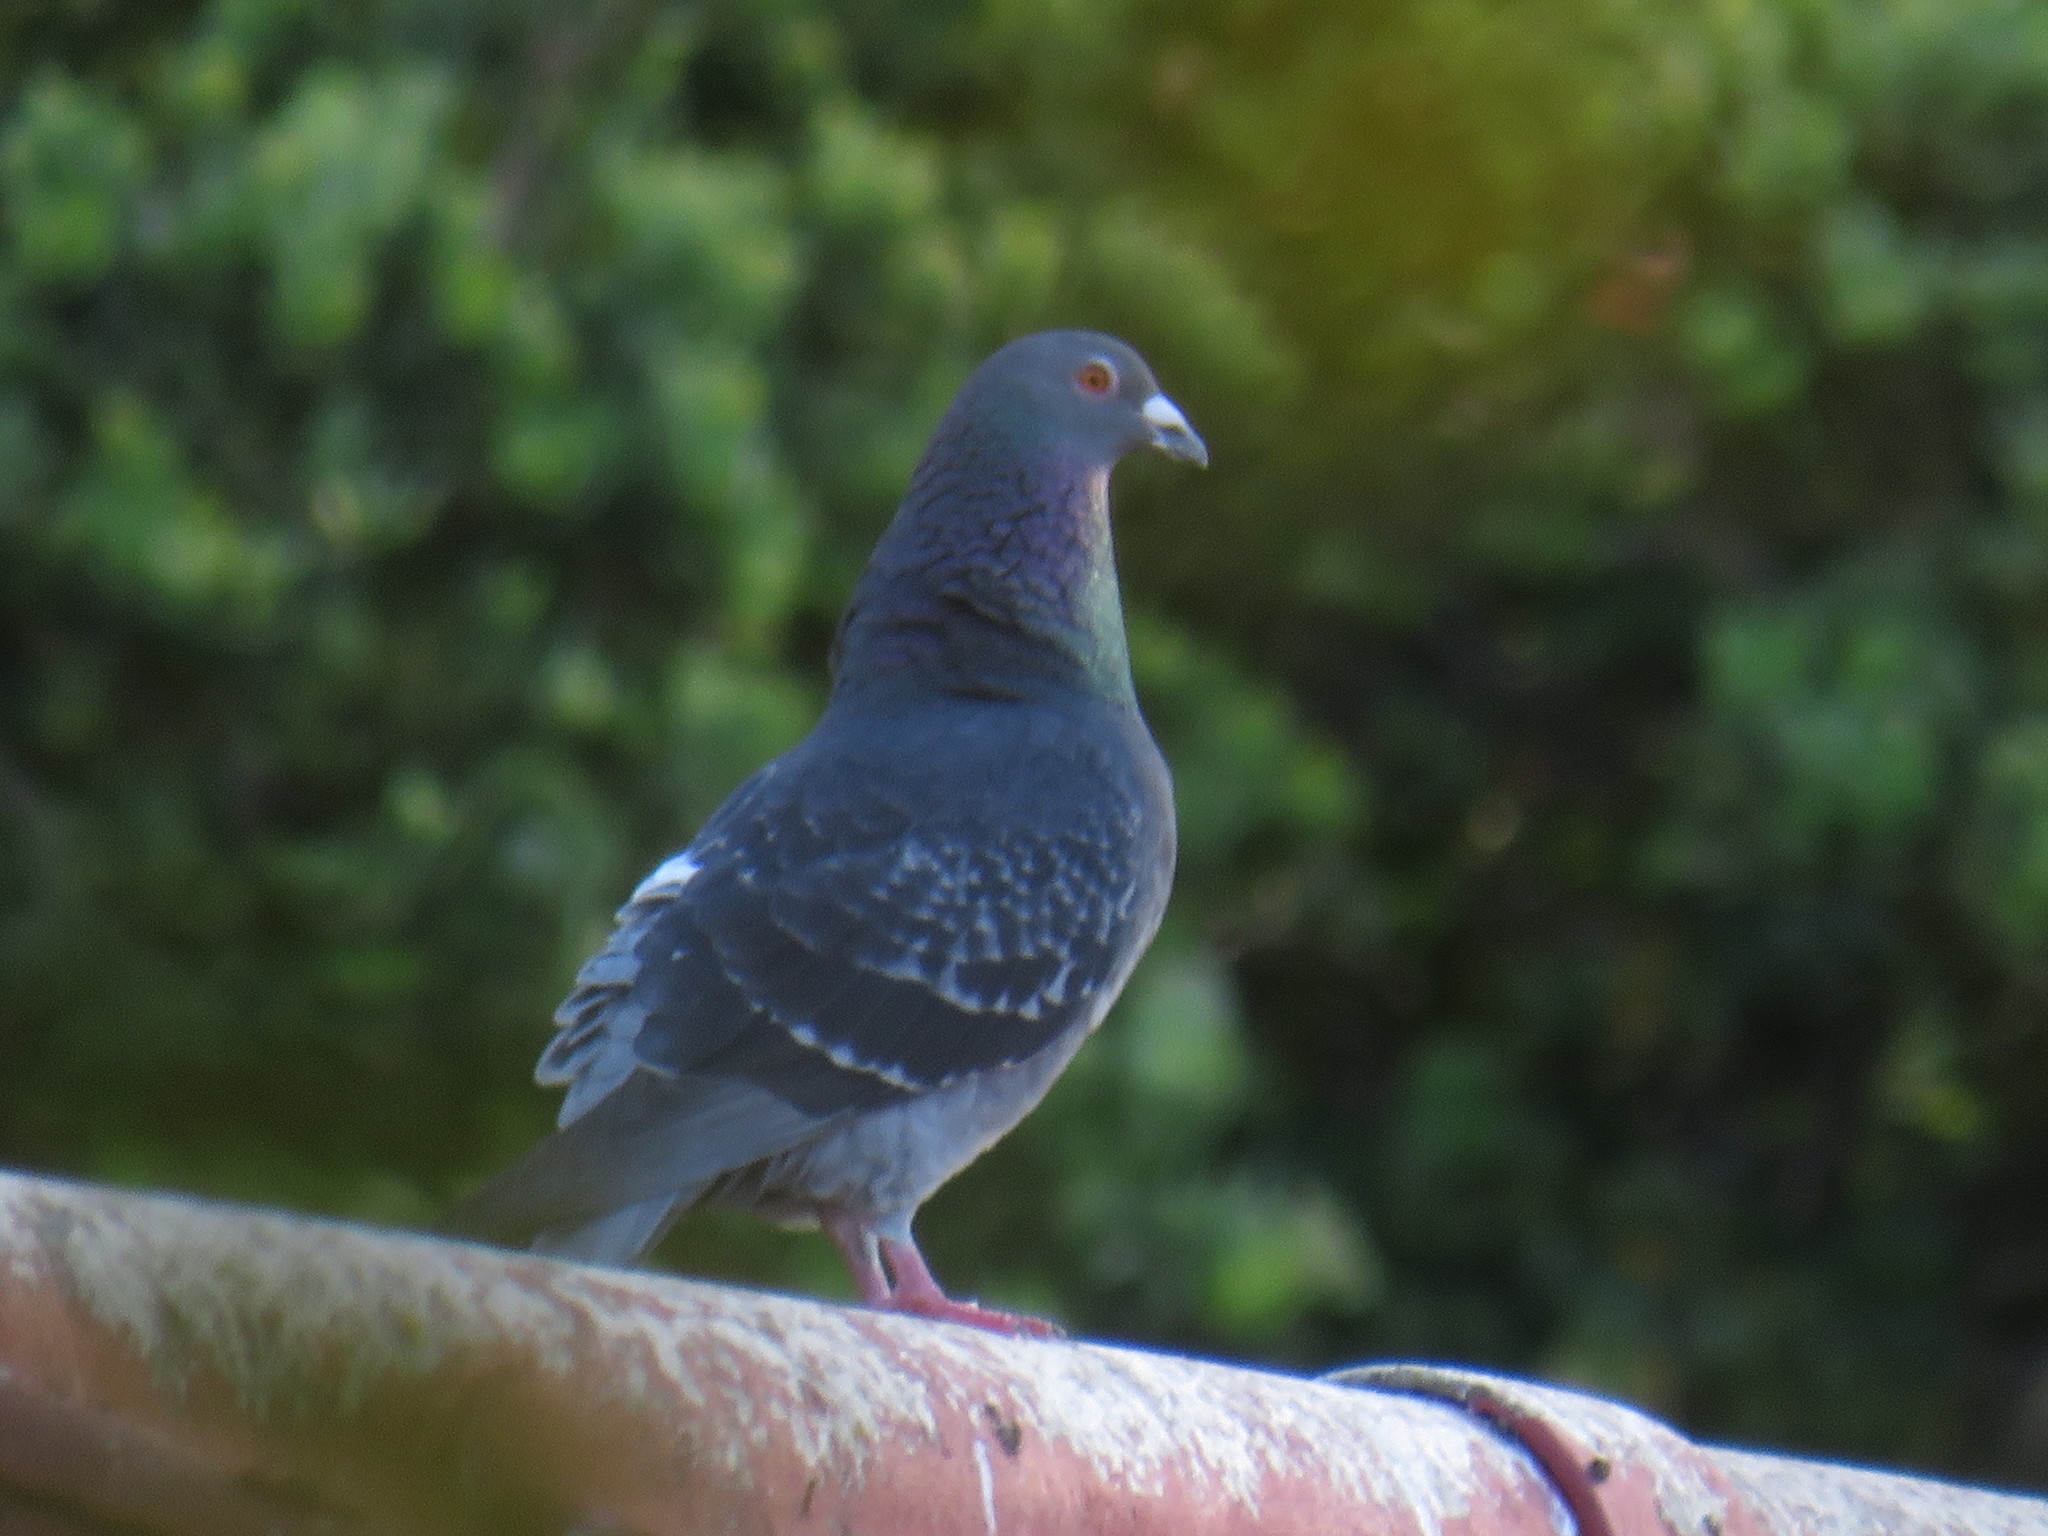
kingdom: Animalia
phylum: Chordata
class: Aves
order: Columbiformes
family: Columbidae
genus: Columba
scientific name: Columba livia
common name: Rock pigeon
